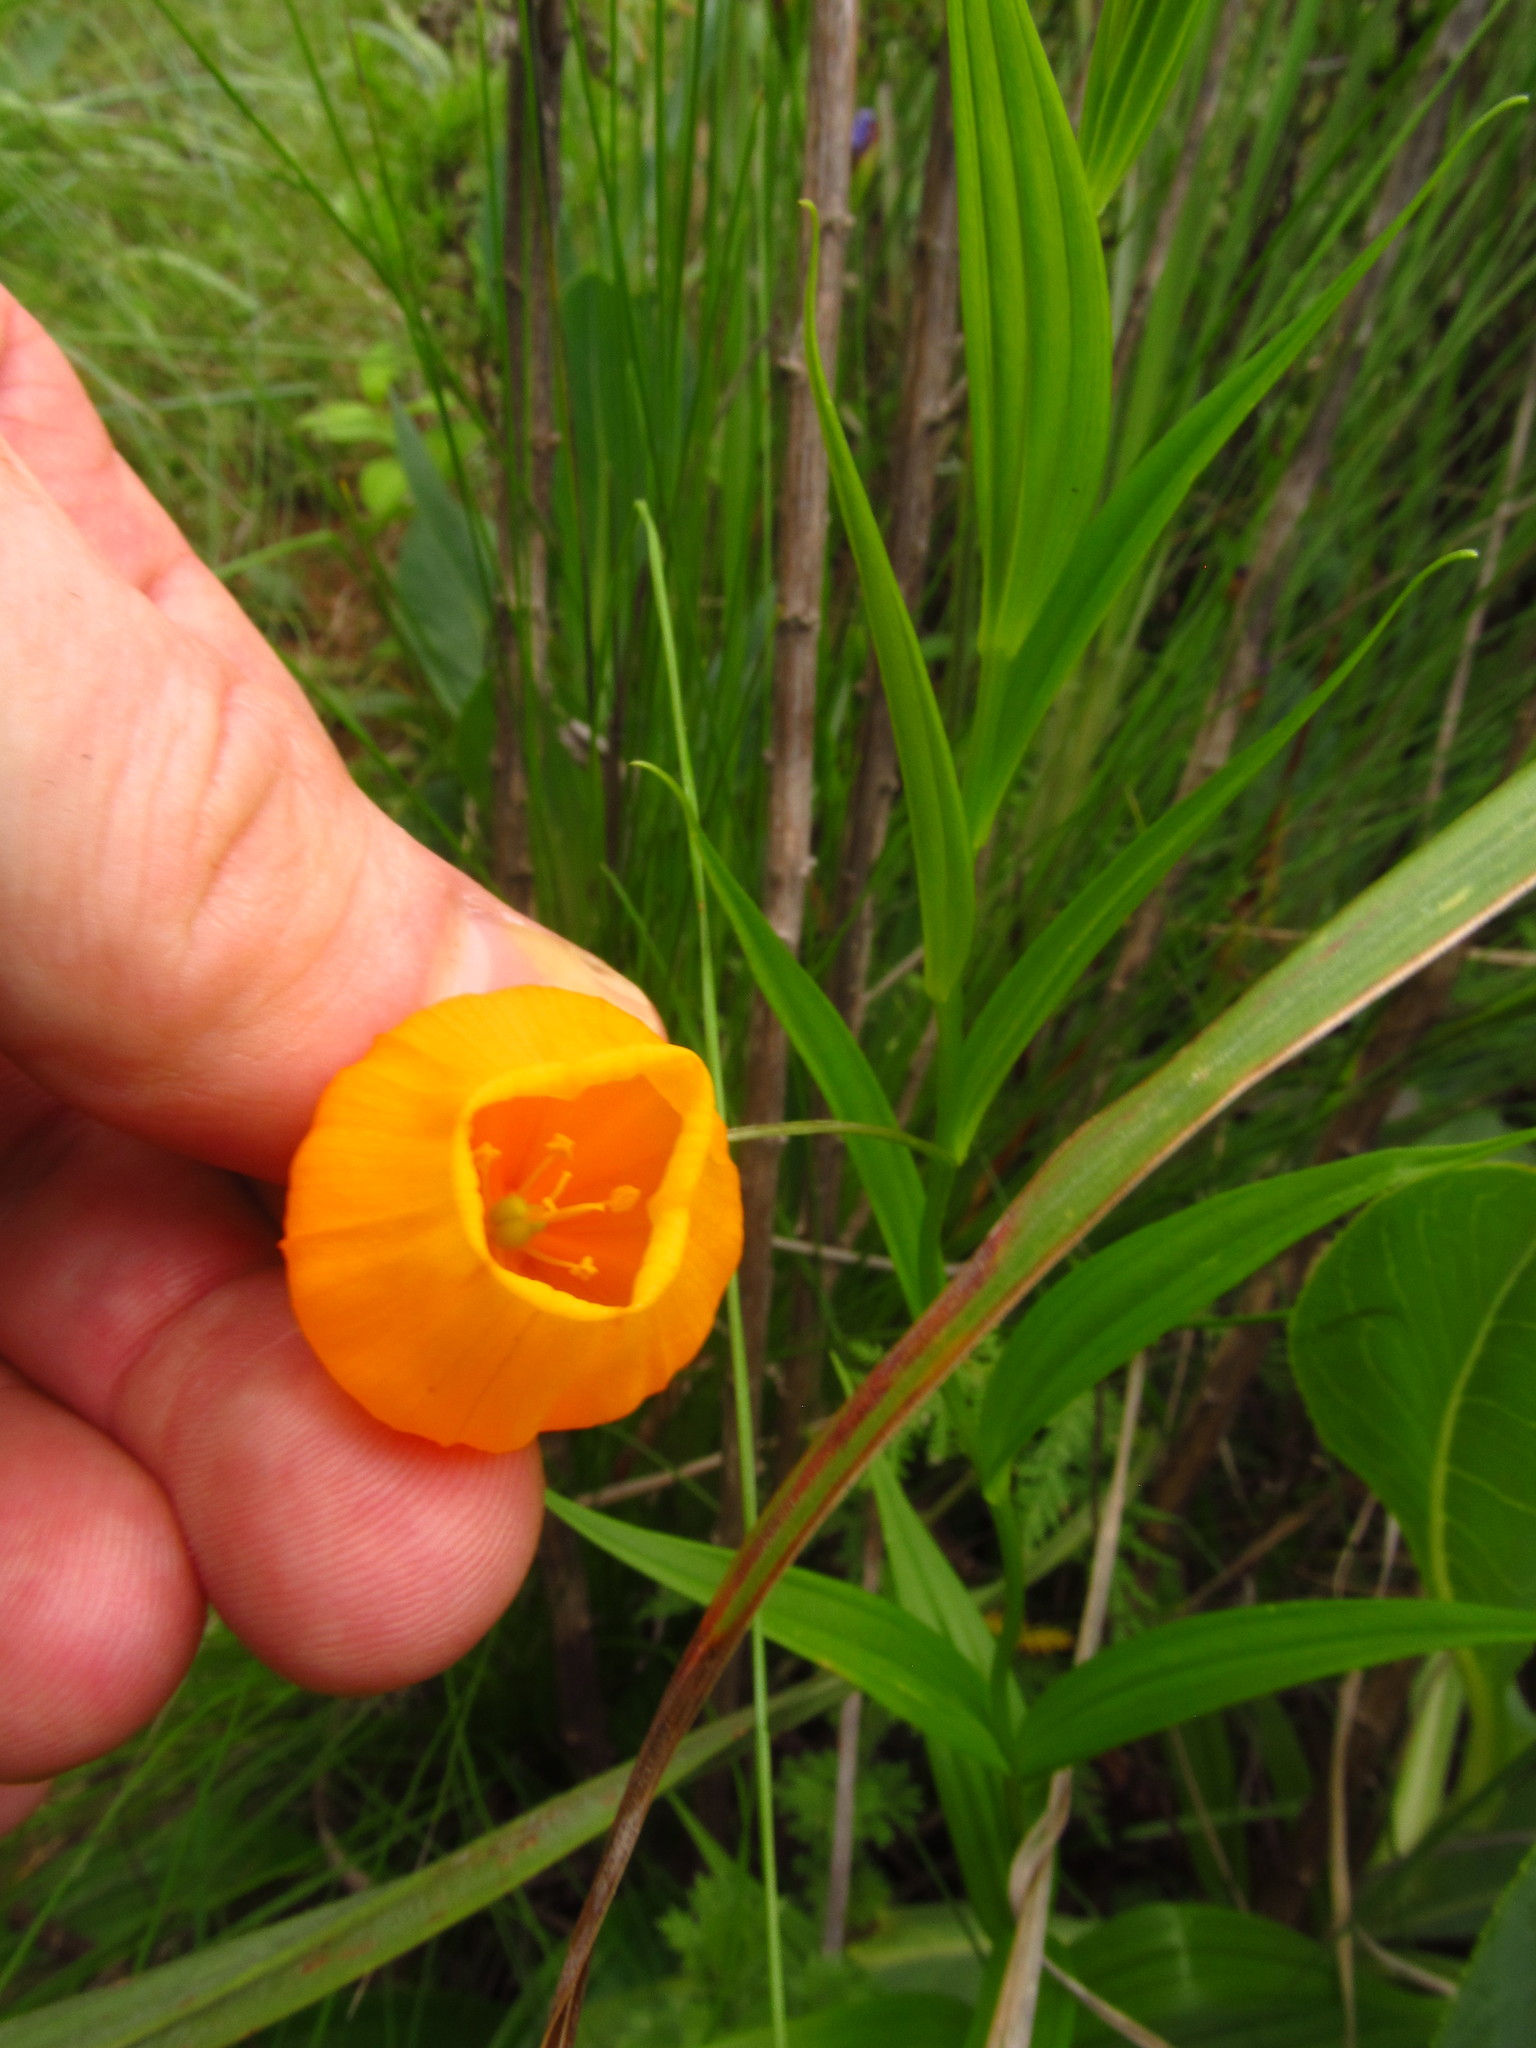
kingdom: Plantae
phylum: Tracheophyta
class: Liliopsida
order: Liliales
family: Colchicaceae
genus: Sandersonia
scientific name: Sandersonia aurantiaca
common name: Chinese-lantern-lily
